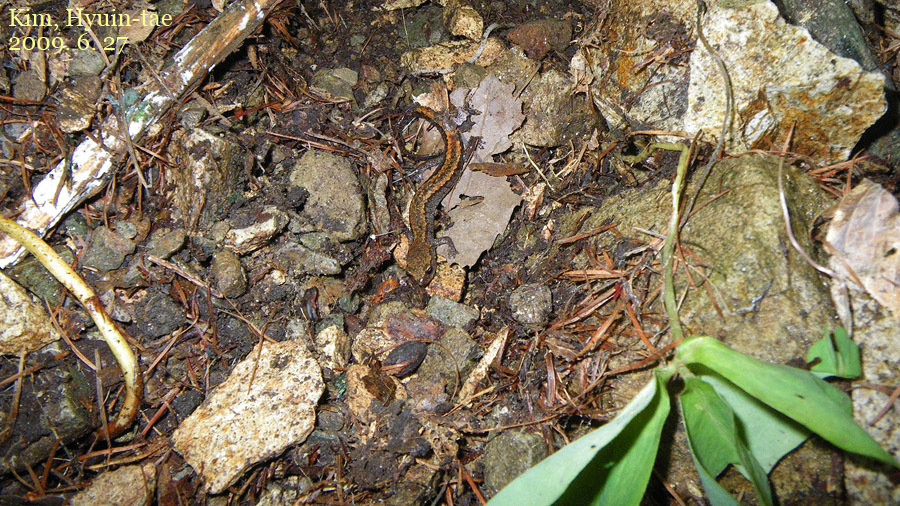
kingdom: Animalia
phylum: Chordata
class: Amphibia
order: Caudata
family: Plethodontidae
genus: Karsenia
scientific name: Karsenia koreana
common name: Korean crevice salamander
